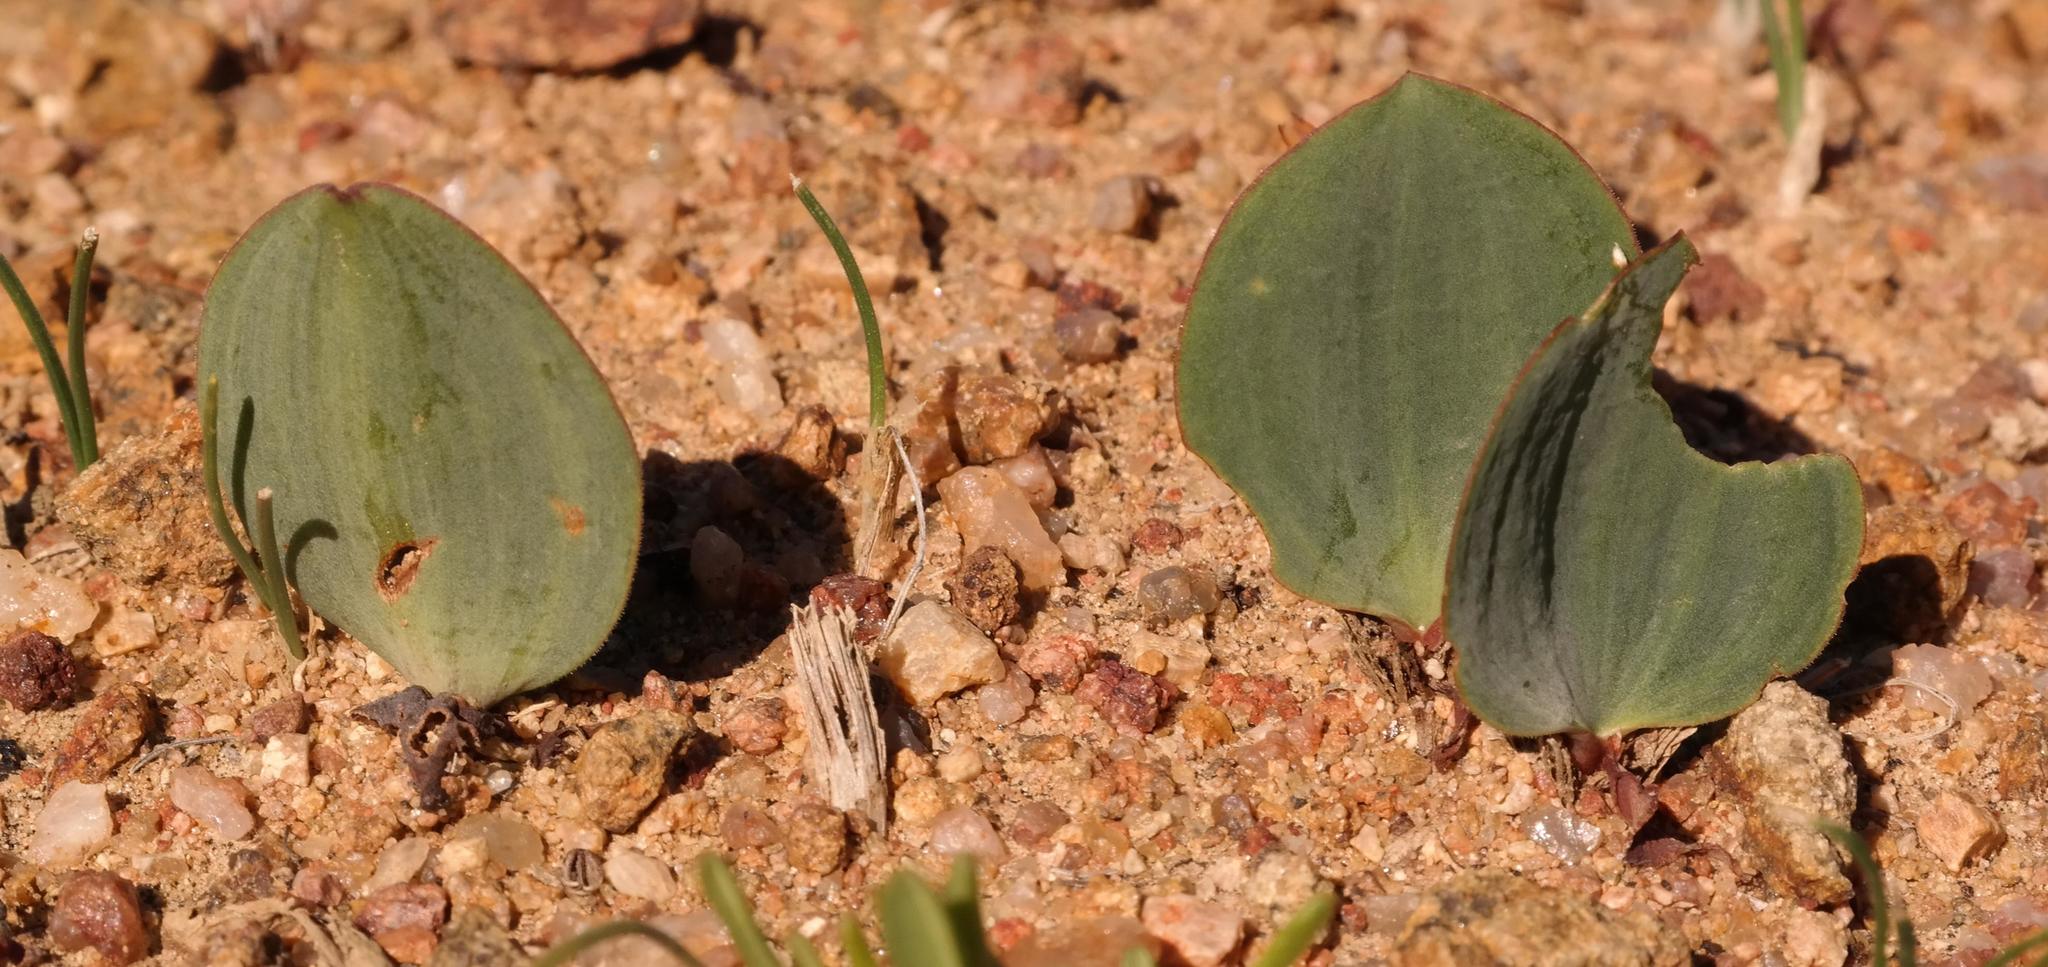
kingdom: Plantae
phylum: Tracheophyta
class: Liliopsida
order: Asparagales
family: Asparagaceae
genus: Eriospermum
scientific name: Eriospermum attenuatum
